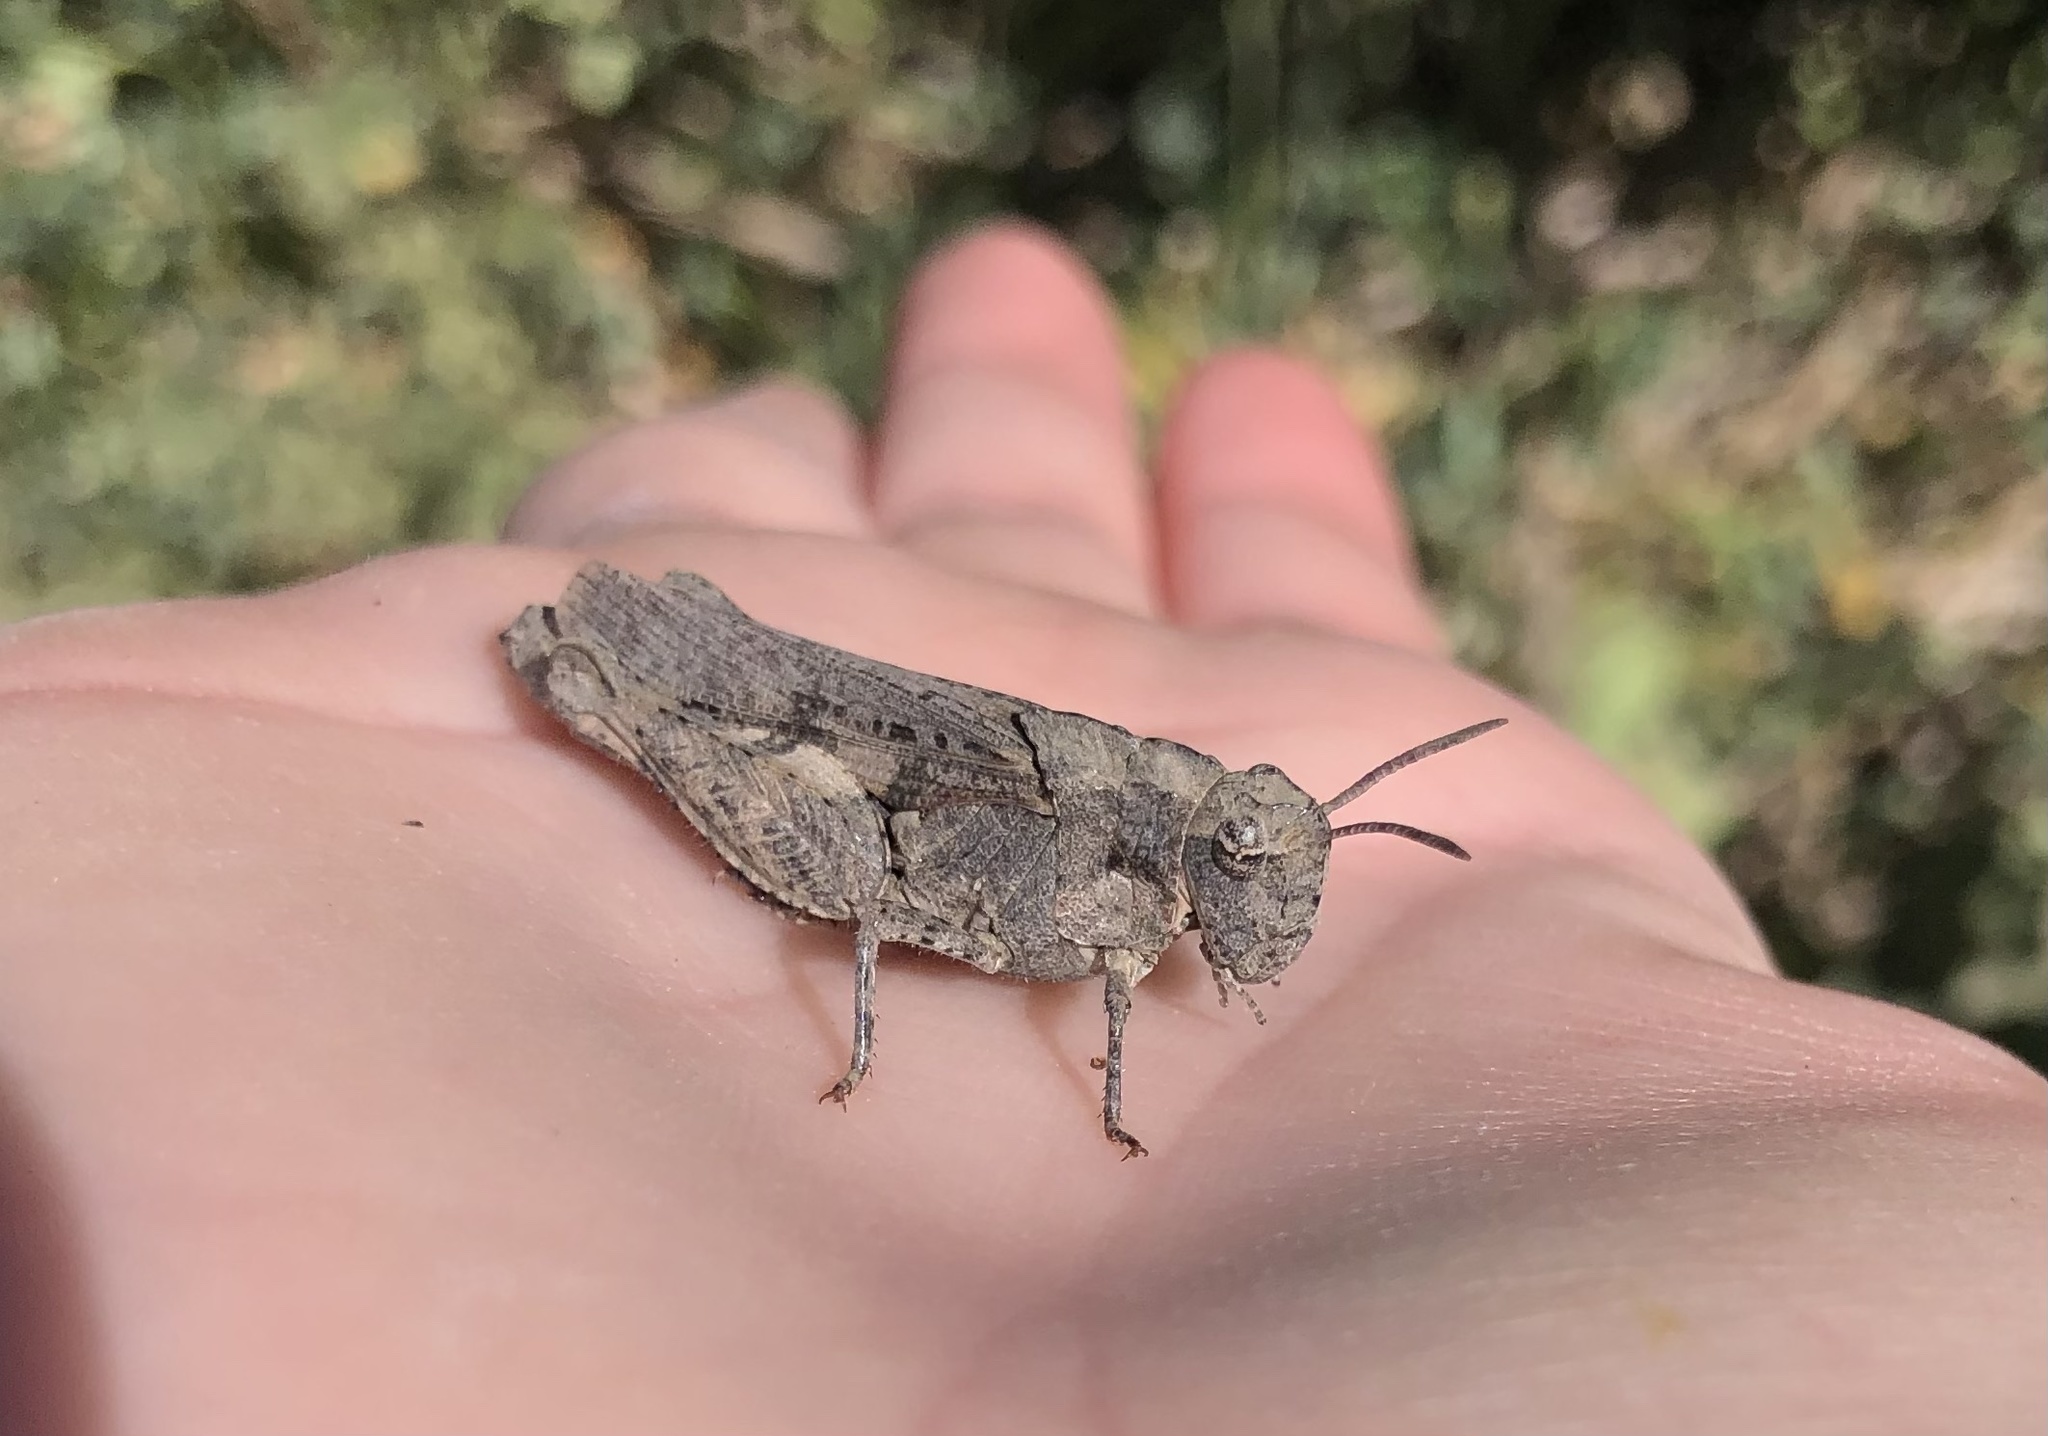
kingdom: Animalia
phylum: Arthropoda
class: Insecta
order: Orthoptera
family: Acrididae
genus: Chimarocephala
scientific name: Chimarocephala pacifica
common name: Painted meadow grasshopper
